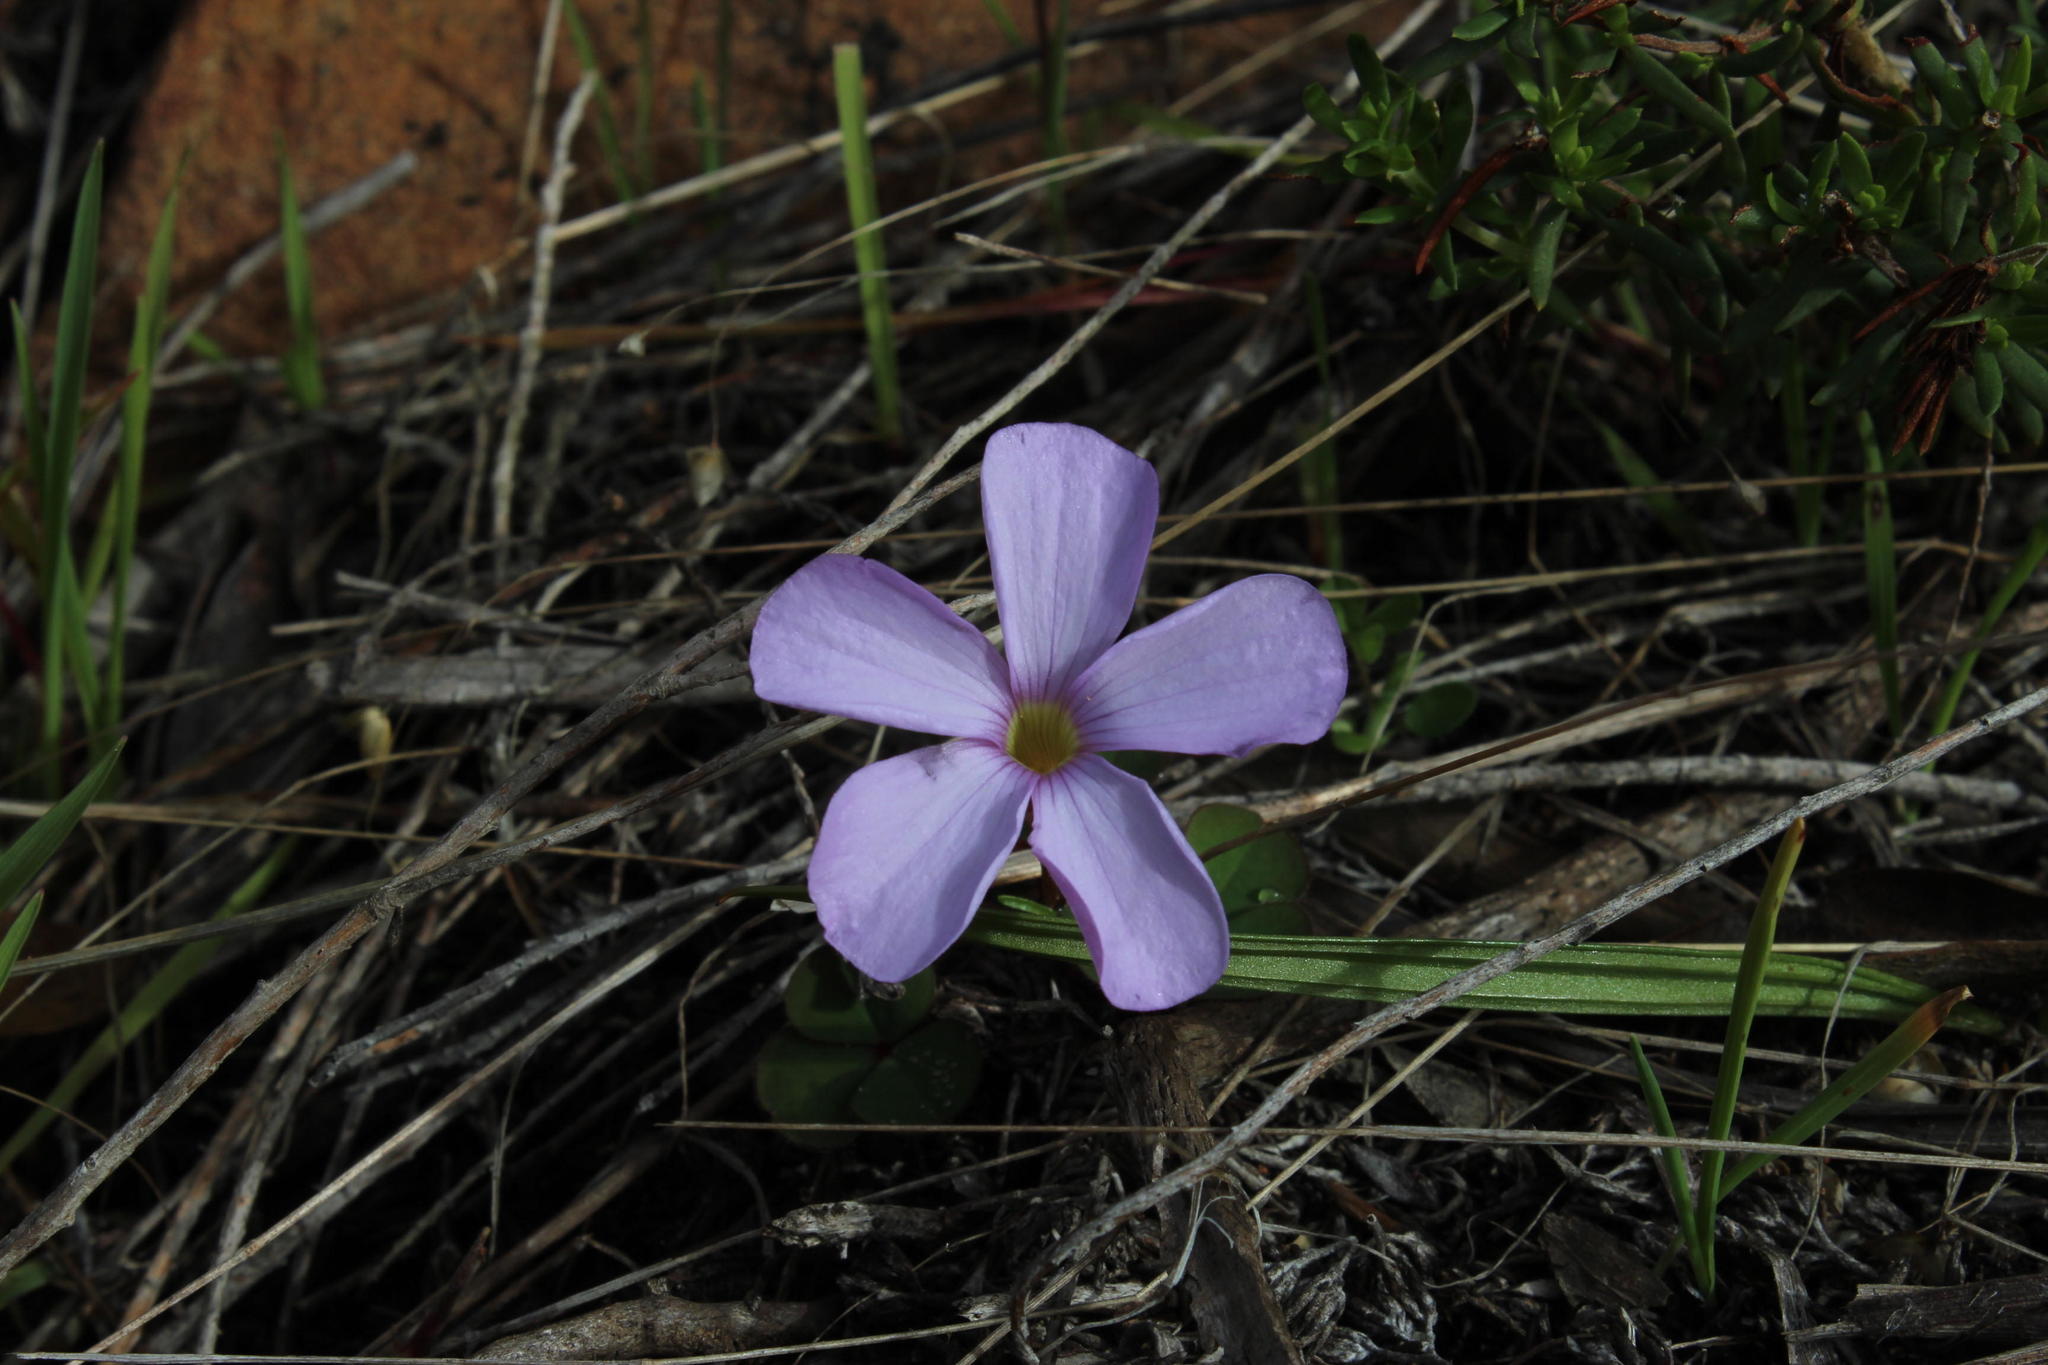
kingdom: Plantae
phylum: Tracheophyta
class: Magnoliopsida
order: Oxalidales
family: Oxalidaceae
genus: Oxalis
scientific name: Oxalis eckloniana
